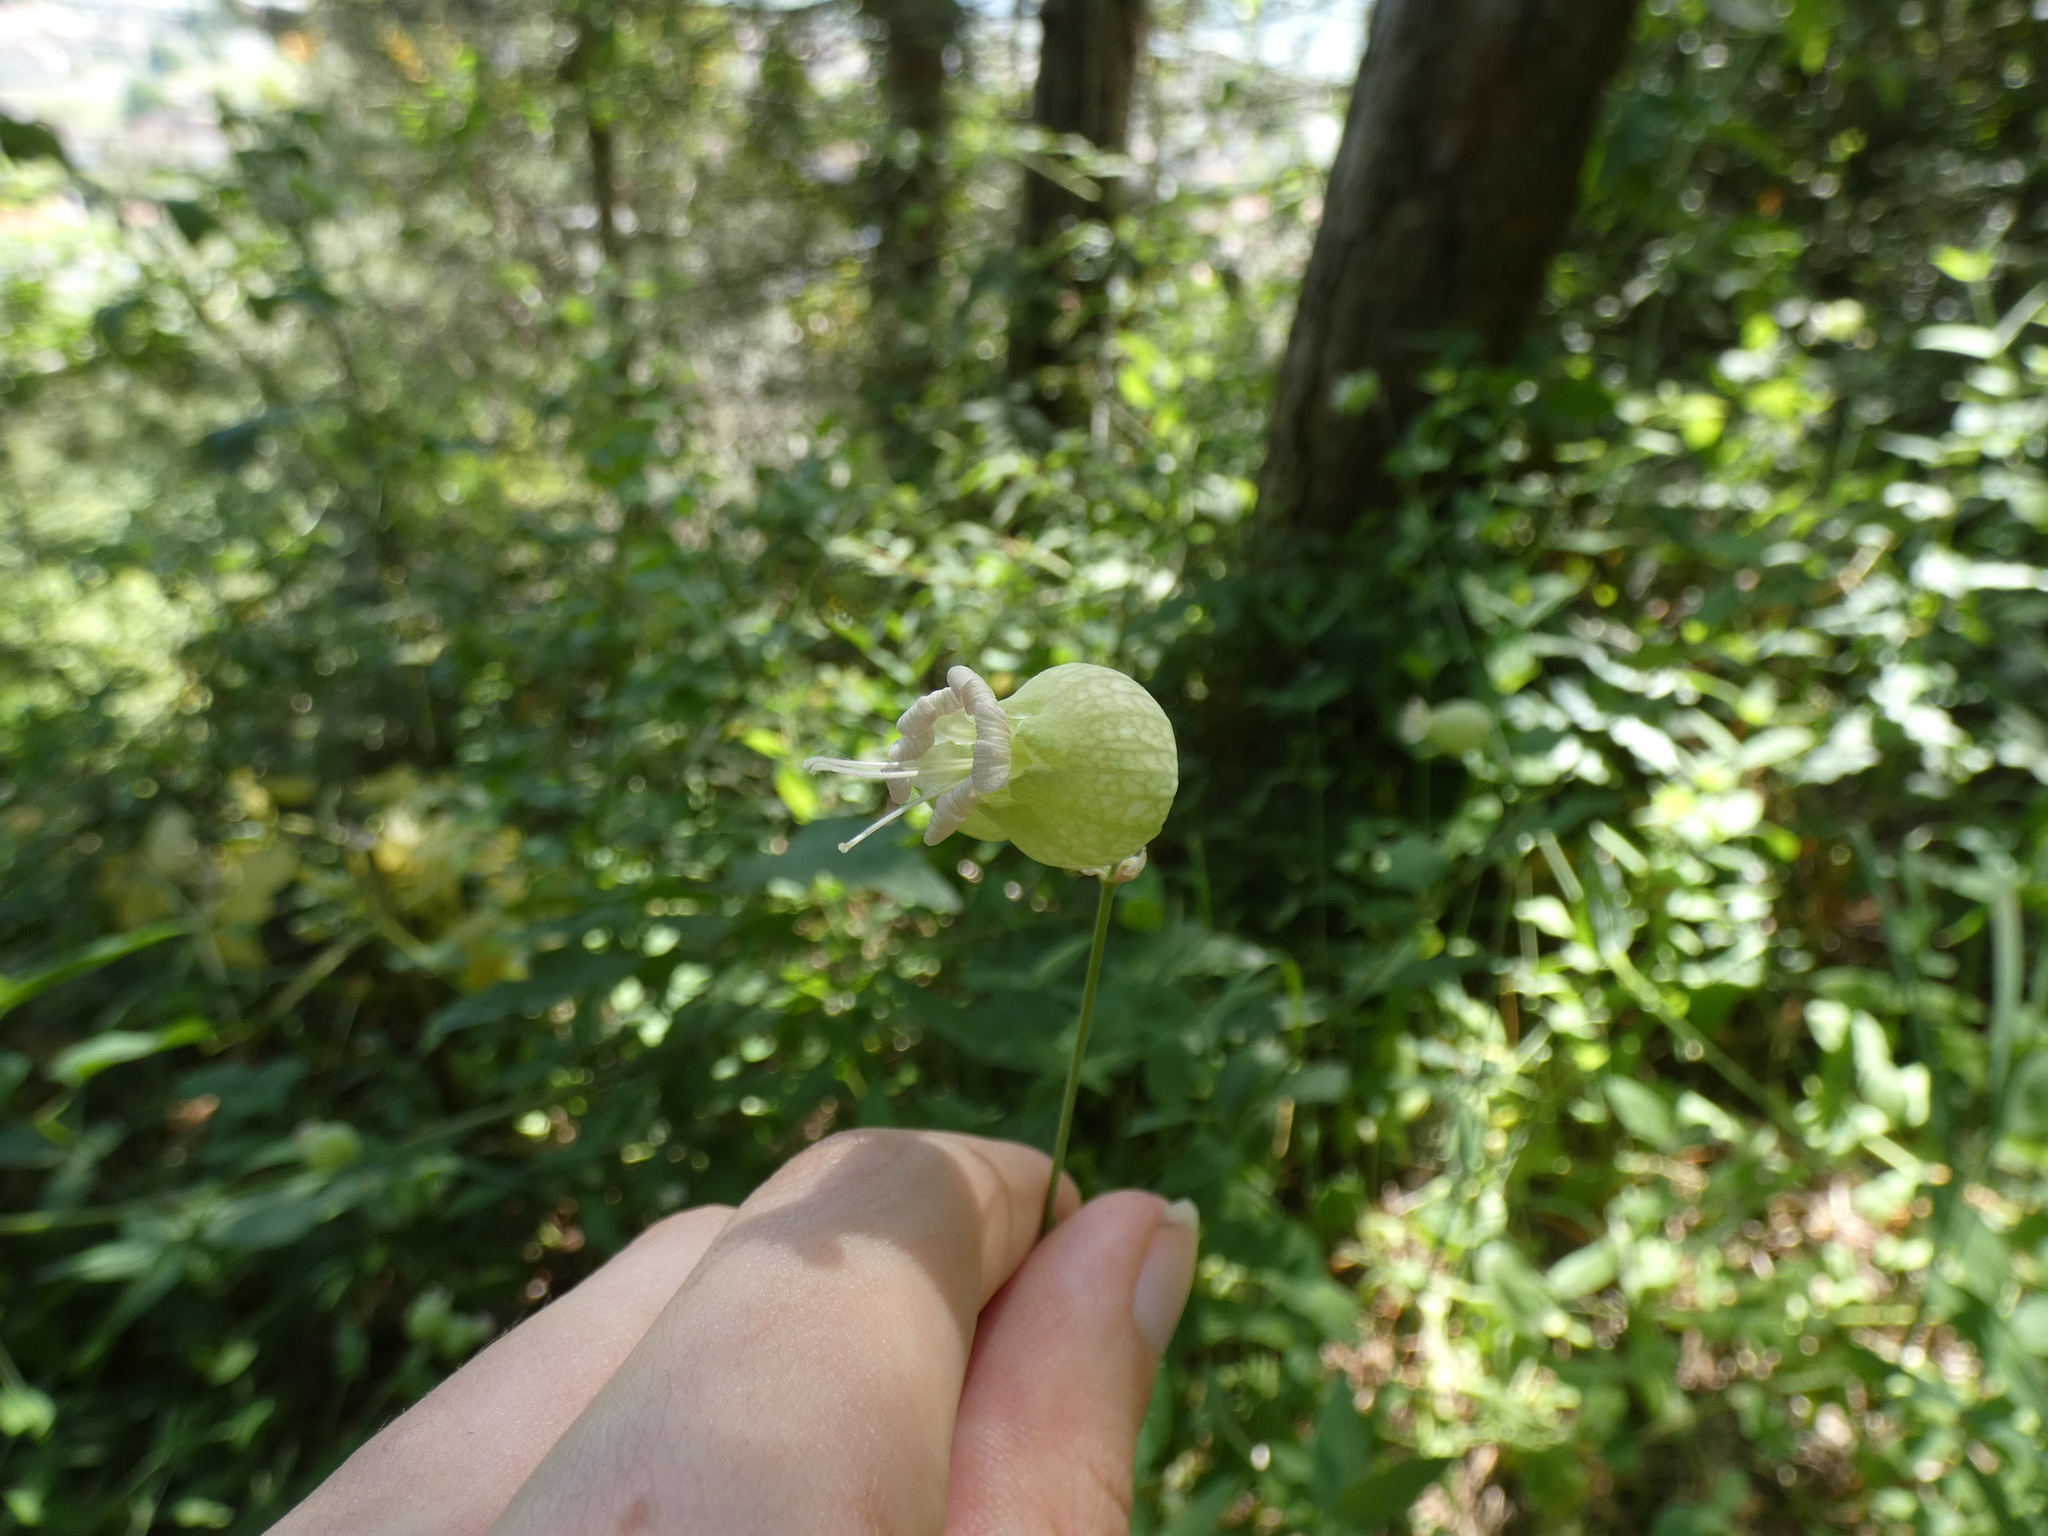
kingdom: Plantae
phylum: Tracheophyta
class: Magnoliopsida
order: Caryophyllales
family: Caryophyllaceae
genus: Silene
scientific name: Silene vulgaris
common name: Bladder campion
